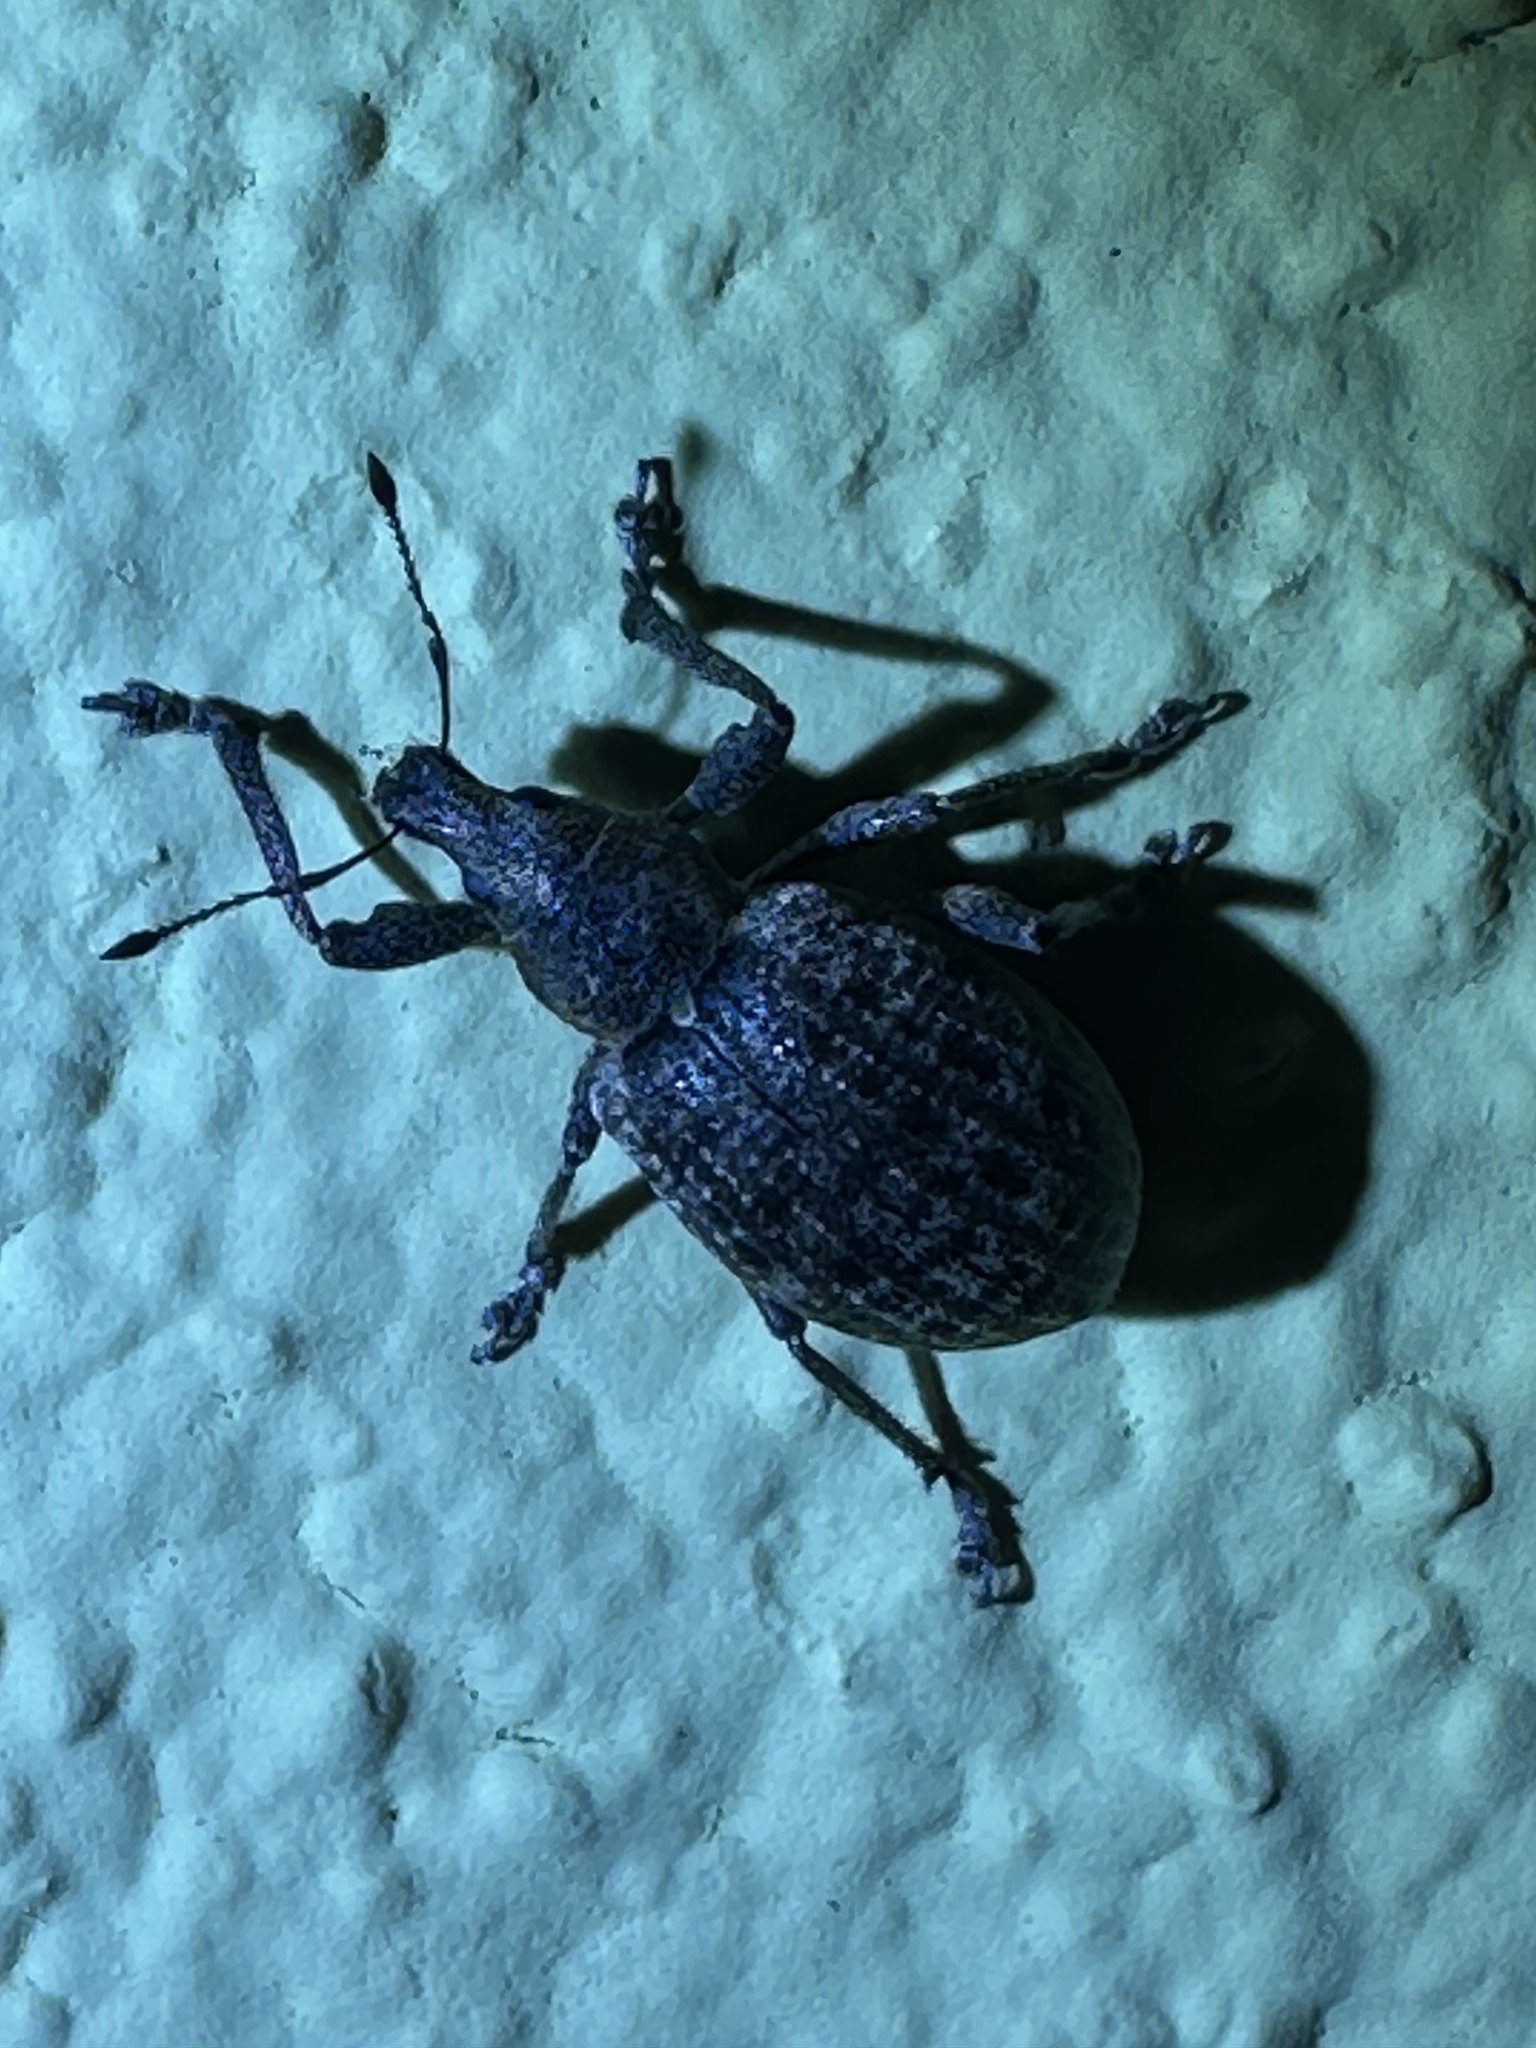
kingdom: Animalia
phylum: Arthropoda
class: Insecta
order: Coleoptera
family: Curculionidae
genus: Liophloeus
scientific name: Liophloeus tessulatus
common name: Weevil
